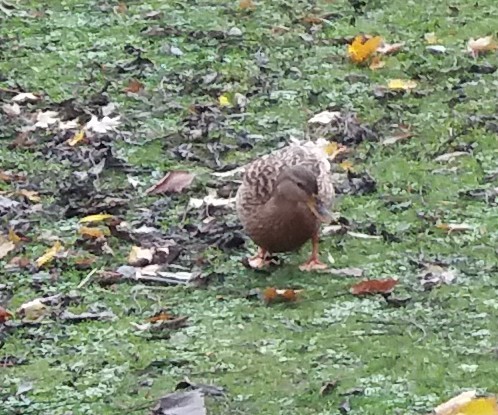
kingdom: Animalia
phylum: Chordata
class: Aves
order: Anseriformes
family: Anatidae
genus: Anas
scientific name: Anas platyrhynchos
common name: Mallard
